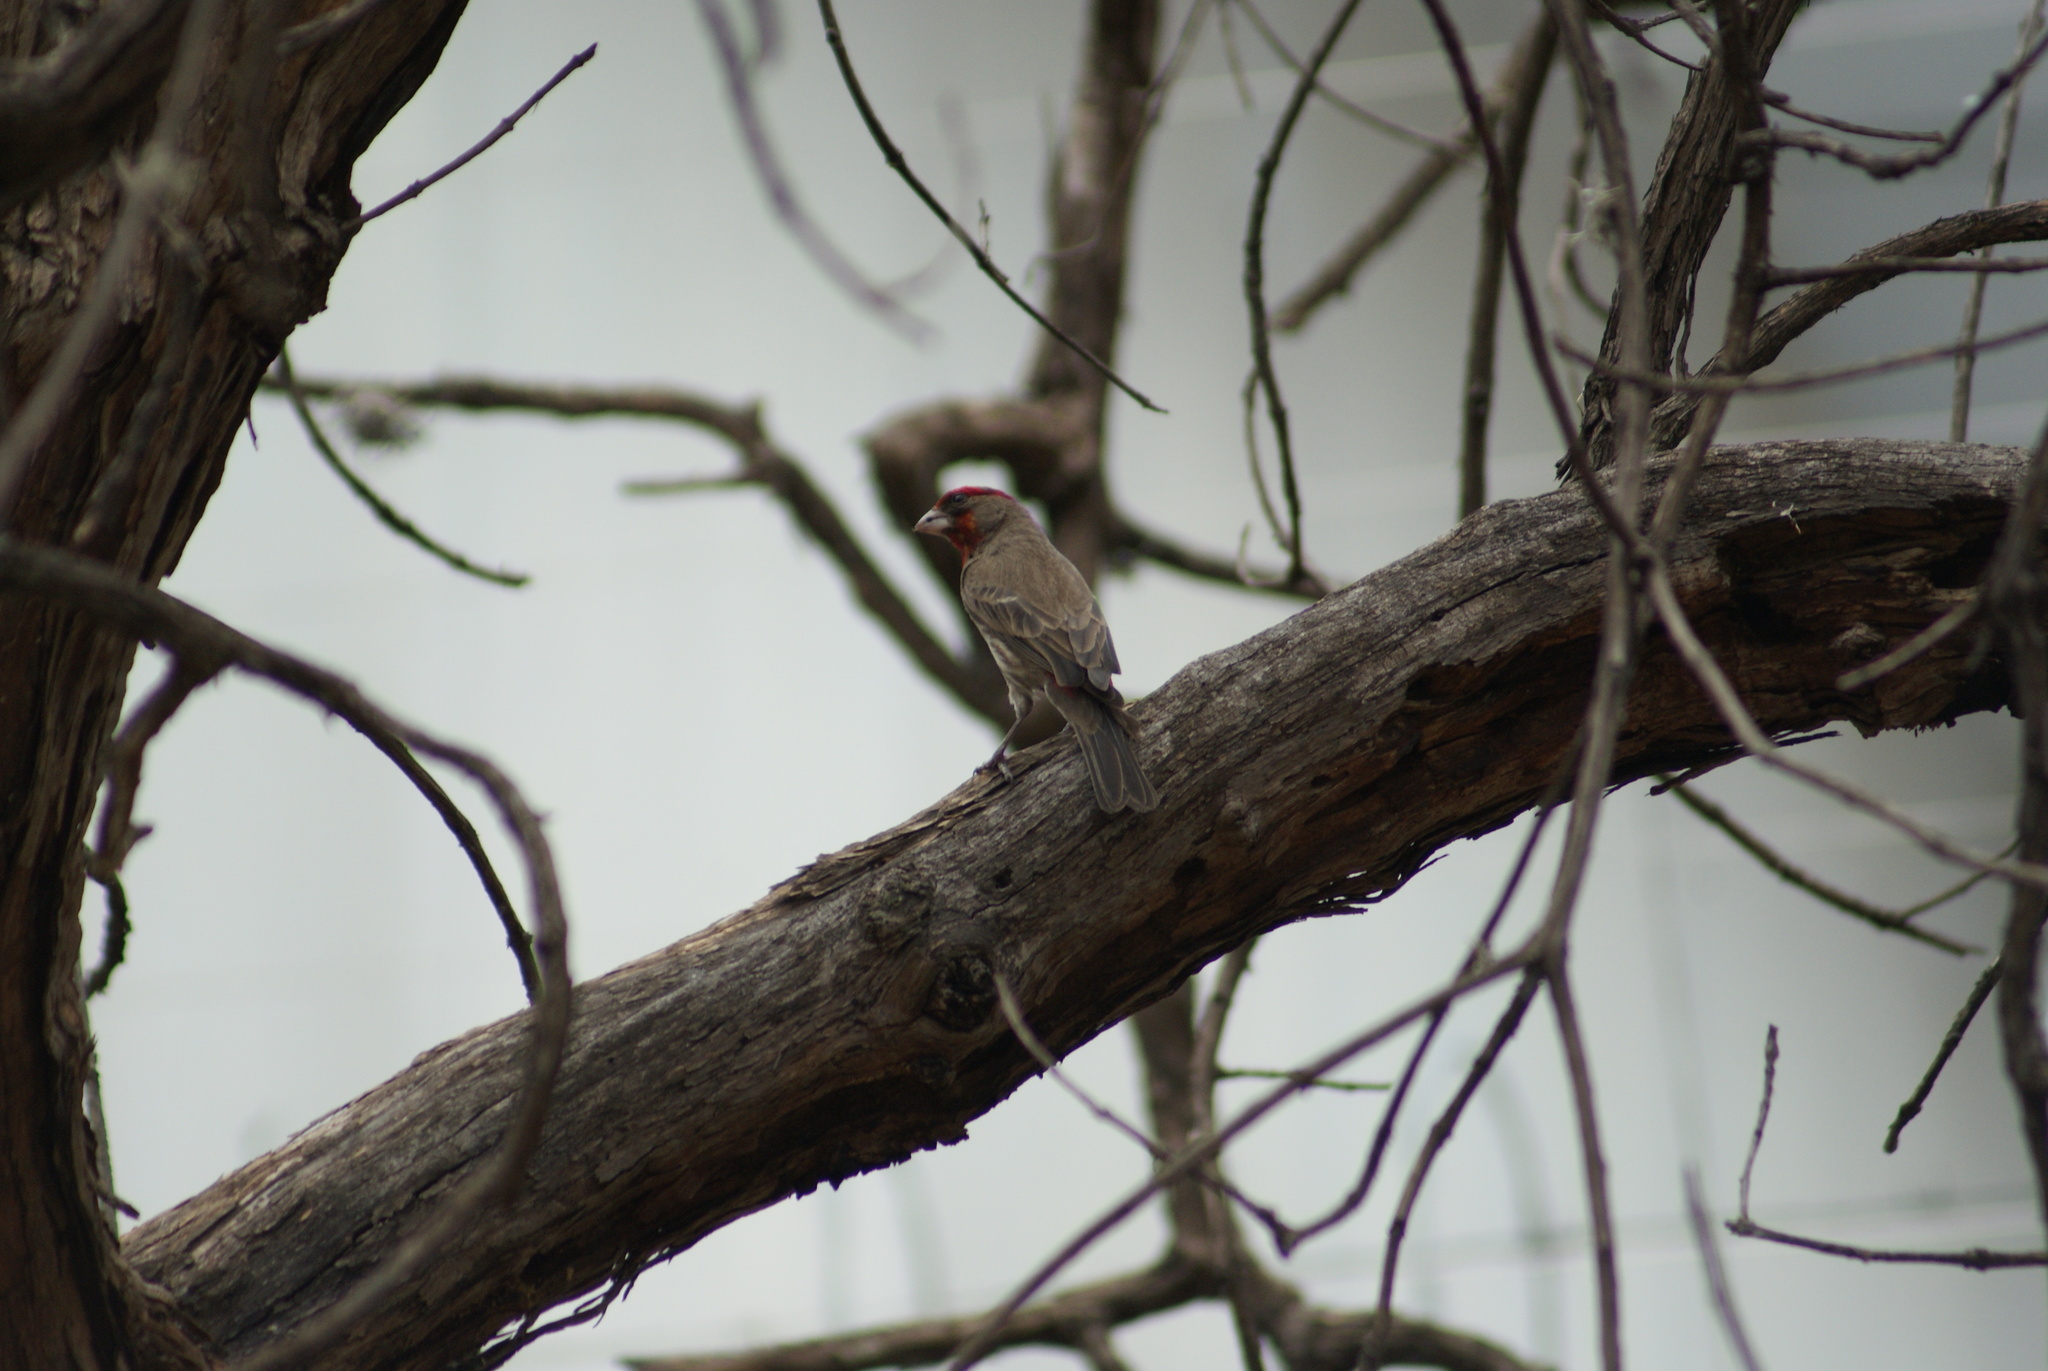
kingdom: Animalia
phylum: Chordata
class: Aves
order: Passeriformes
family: Fringillidae
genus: Haemorhous
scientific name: Haemorhous mexicanus
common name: House finch
